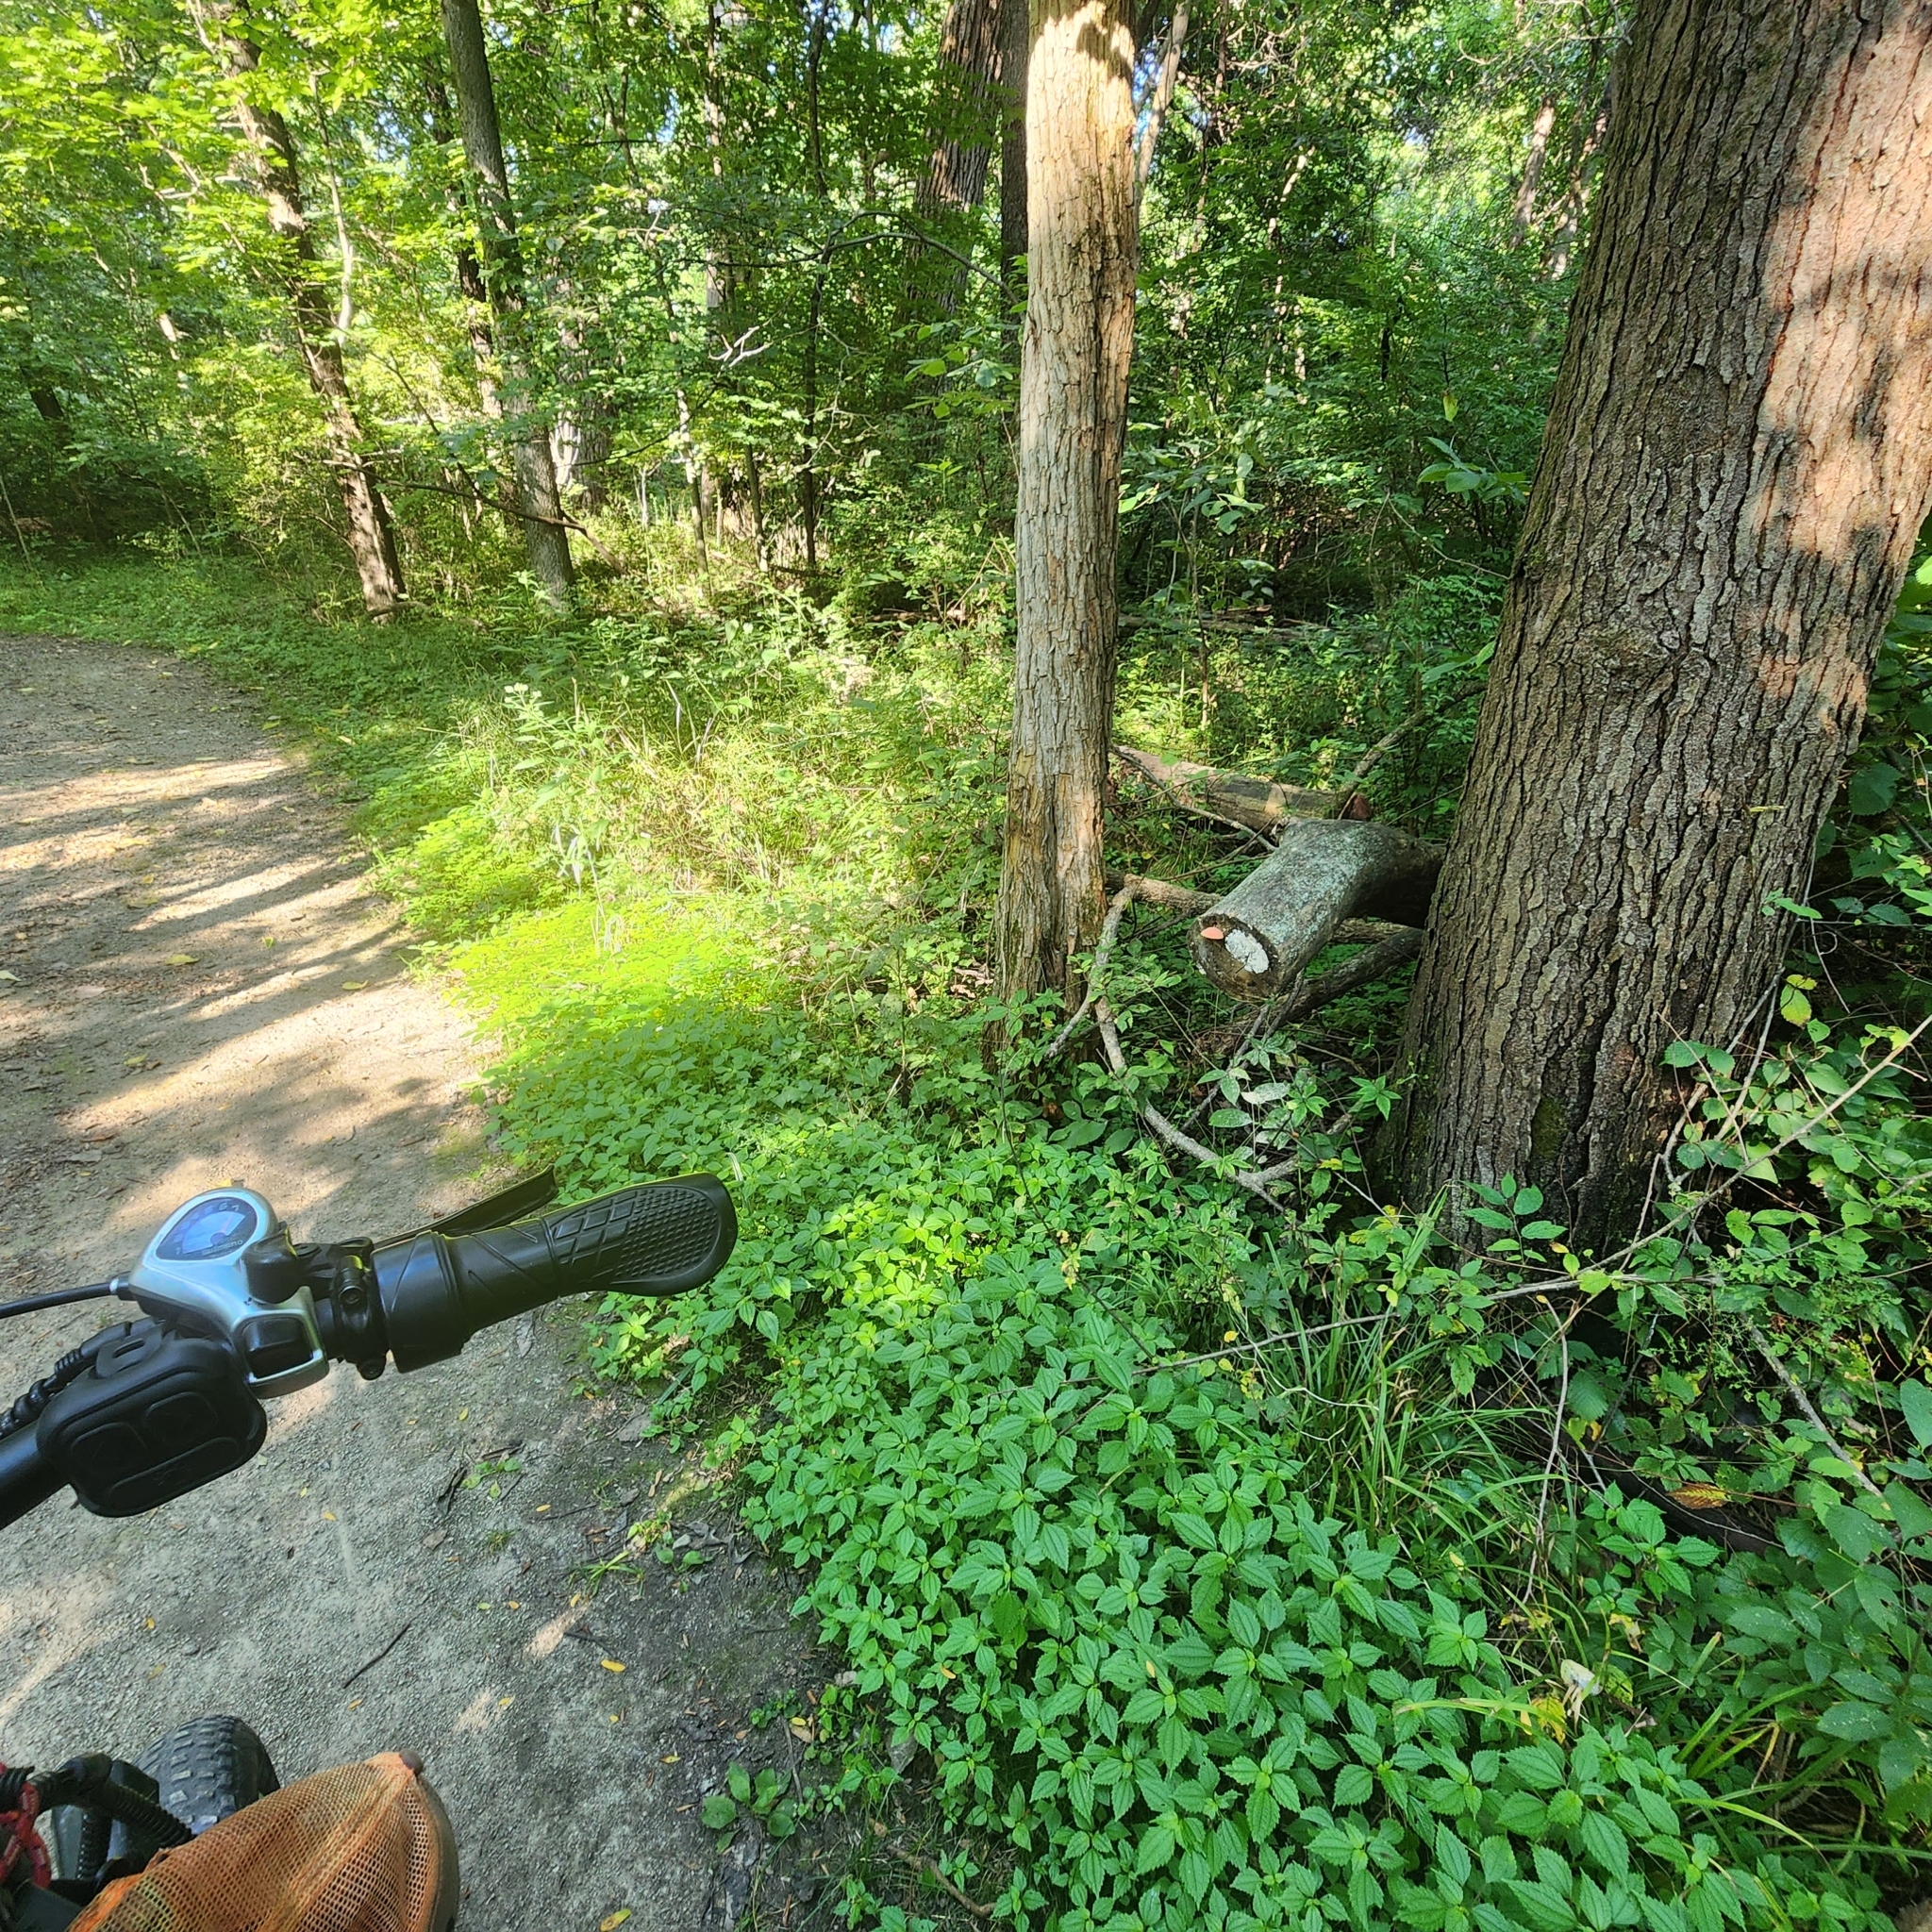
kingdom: Fungi
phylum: Basidiomycota
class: Agaricomycetes
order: Agaricales
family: Physalacriaceae
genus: Rhodotus
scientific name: Rhodotus palmatus
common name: Wrinkled peach
